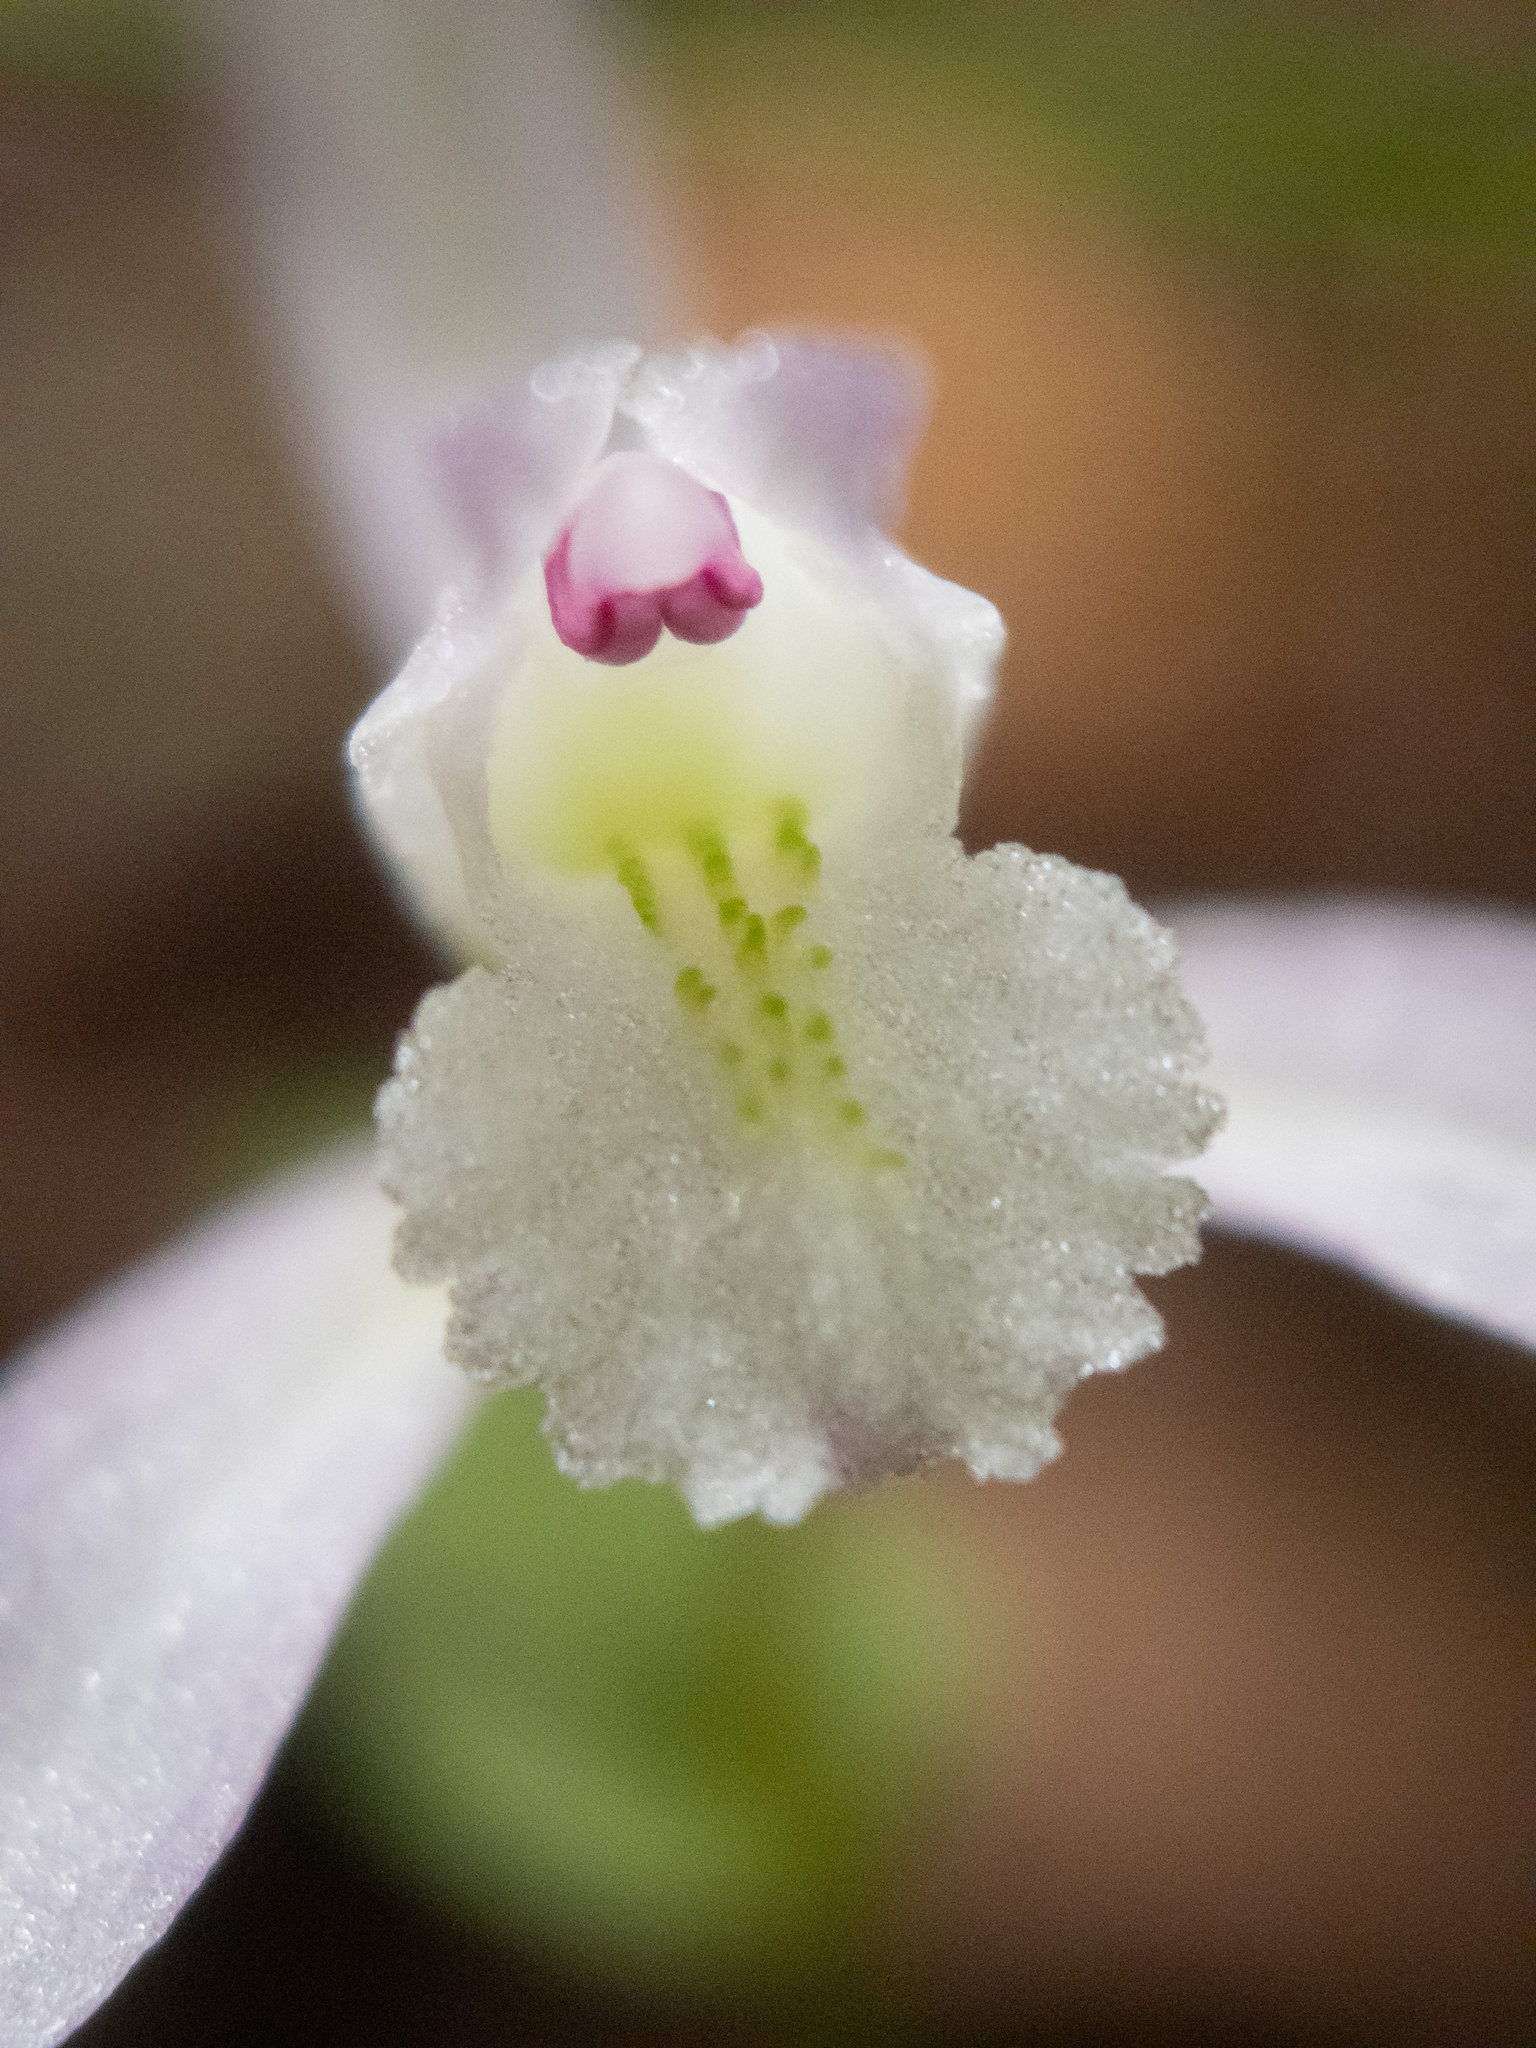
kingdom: Plantae
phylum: Tracheophyta
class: Liliopsida
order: Asparagales
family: Orchidaceae
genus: Triphora
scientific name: Triphora trianthophoros
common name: Three birds orchid
